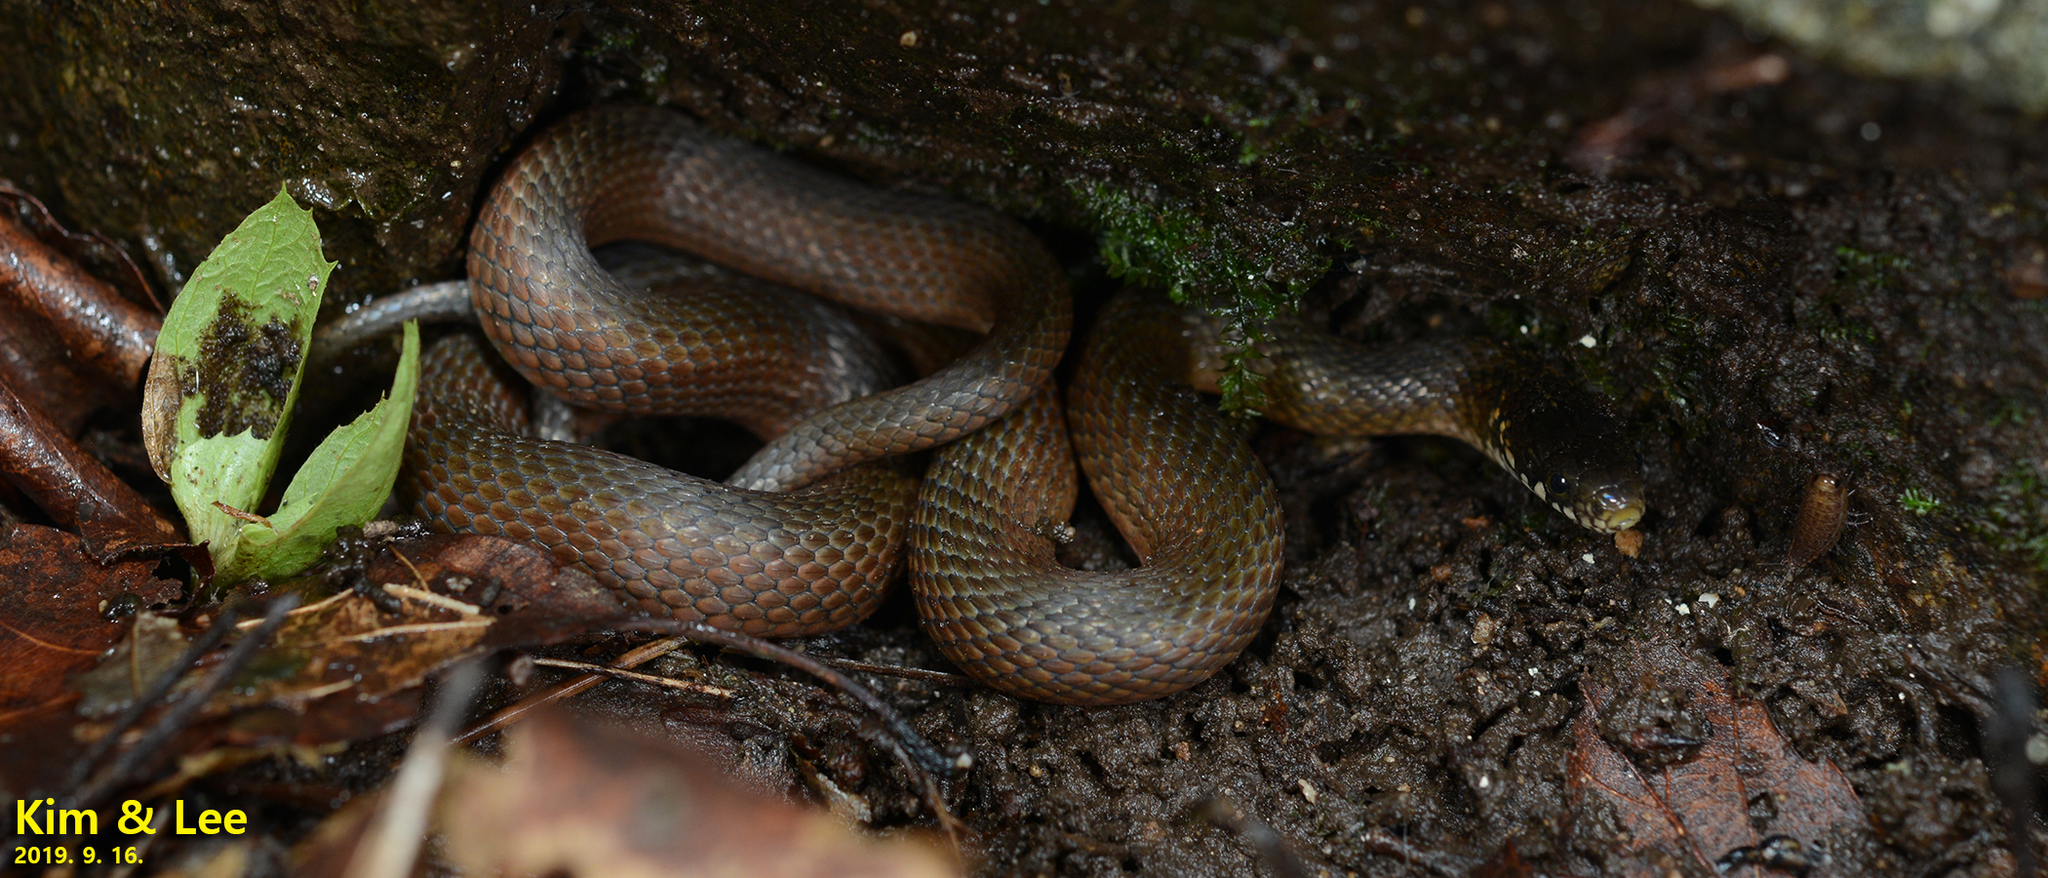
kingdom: Animalia
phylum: Chordata
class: Squamata
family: Colubridae
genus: Hebius
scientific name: Hebius vibakari
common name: Japanese keelback
